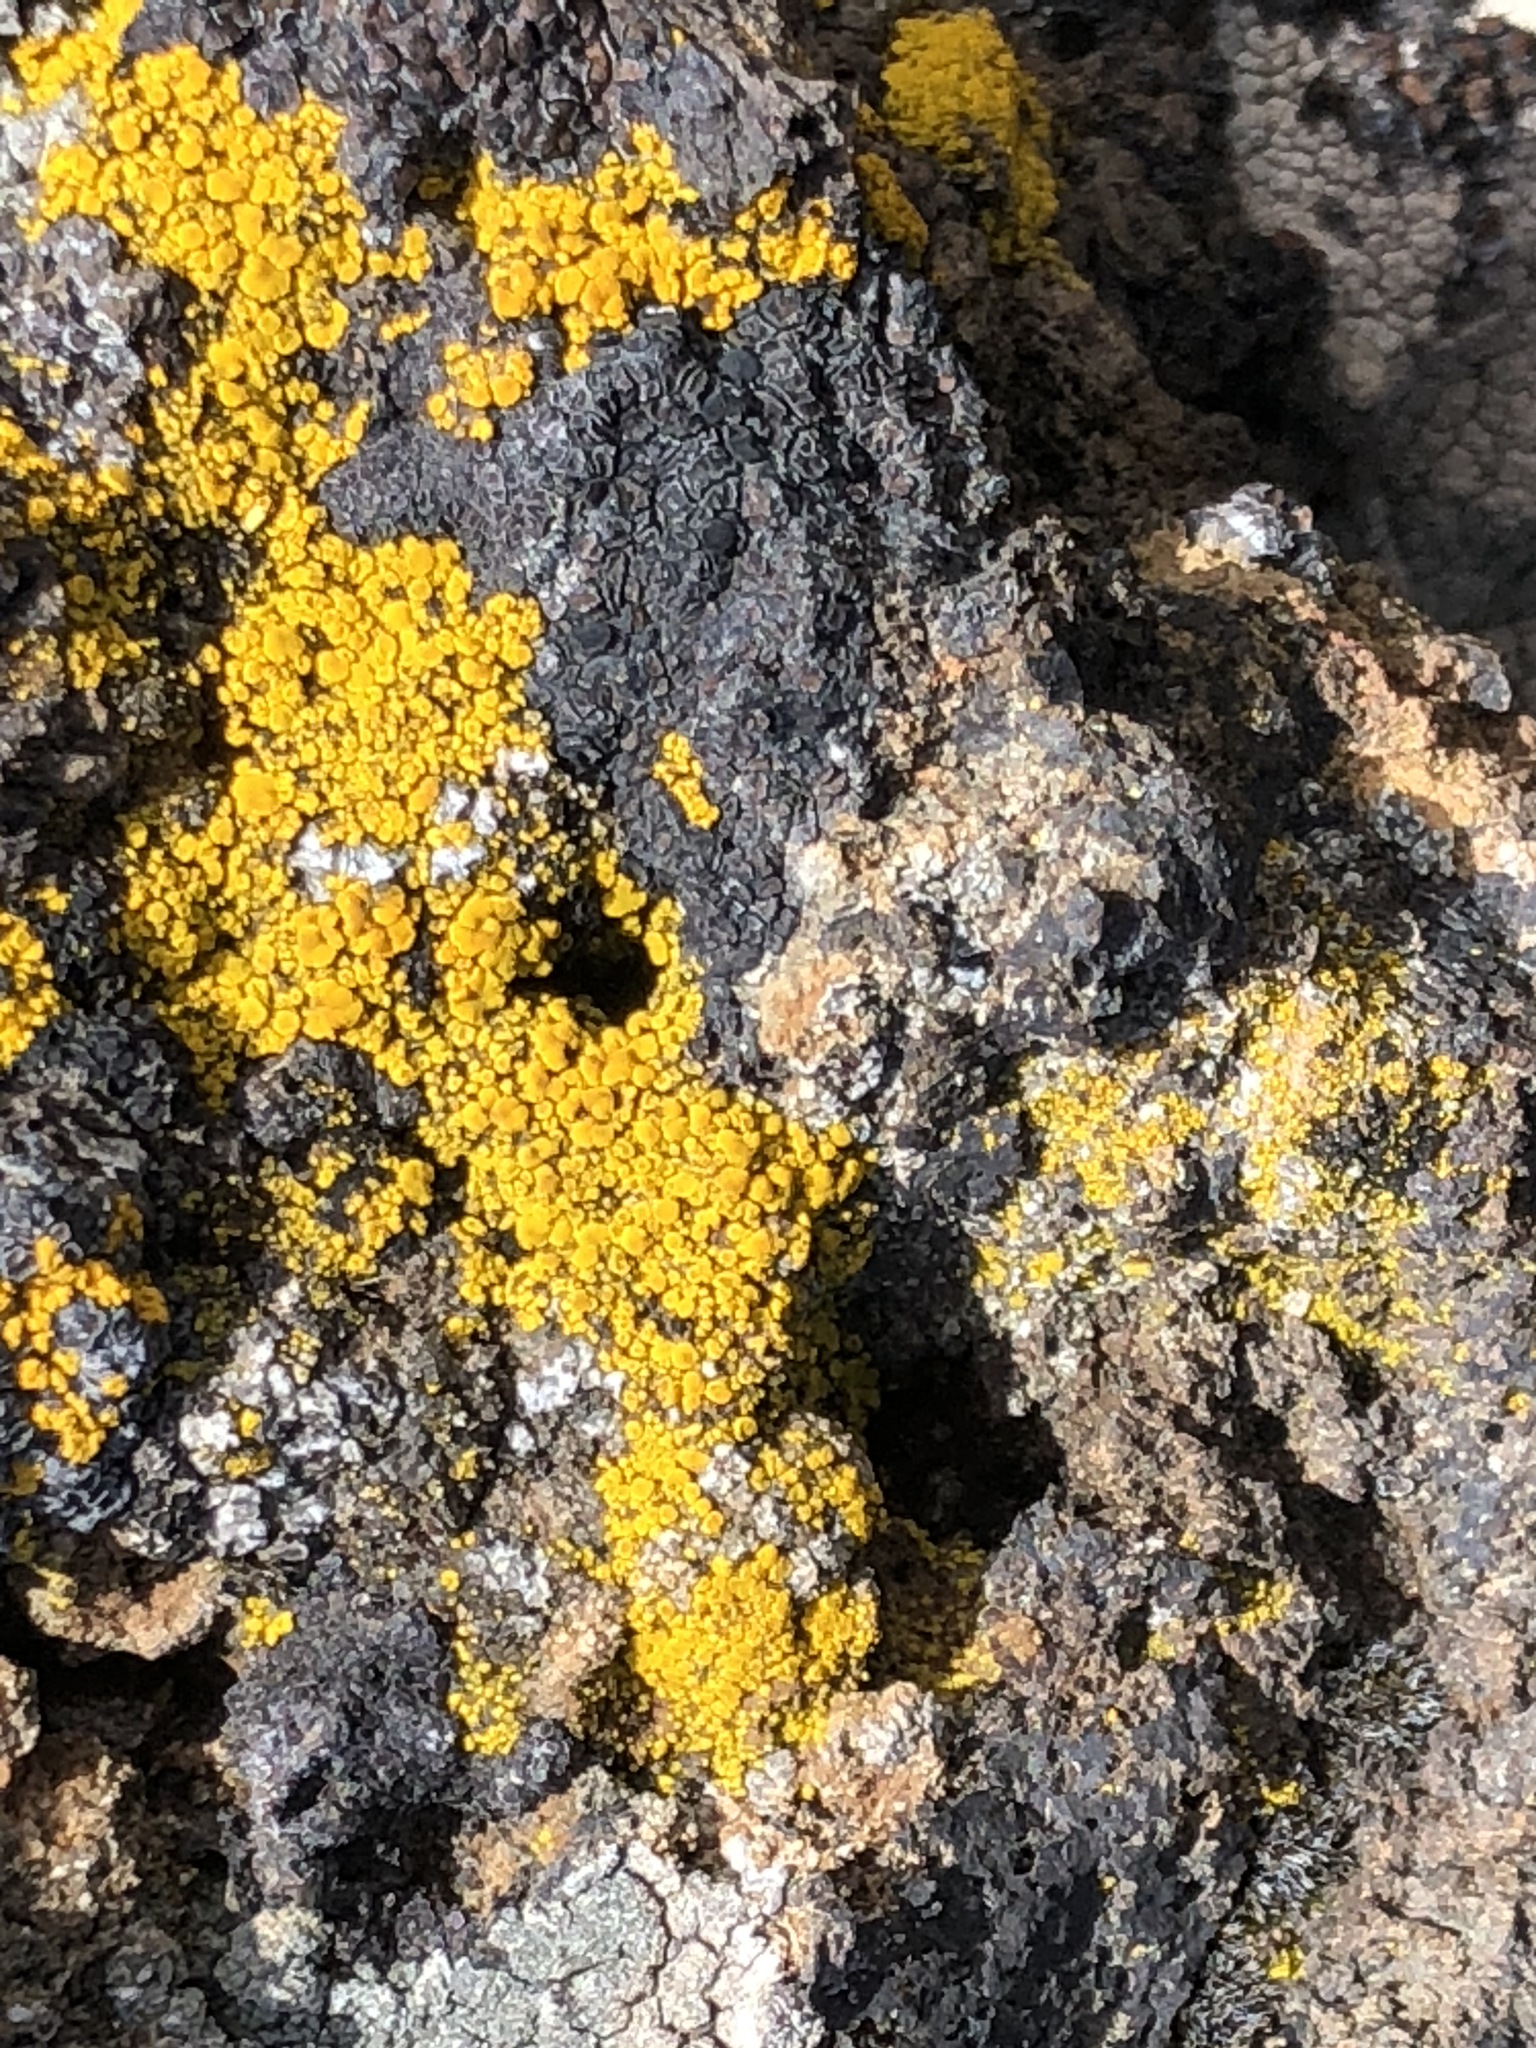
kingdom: Fungi
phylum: Ascomycota
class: Candelariomycetes
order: Candelariales
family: Candelariaceae
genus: Candelariella
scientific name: Candelariella vitellina
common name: Common goldspeck
